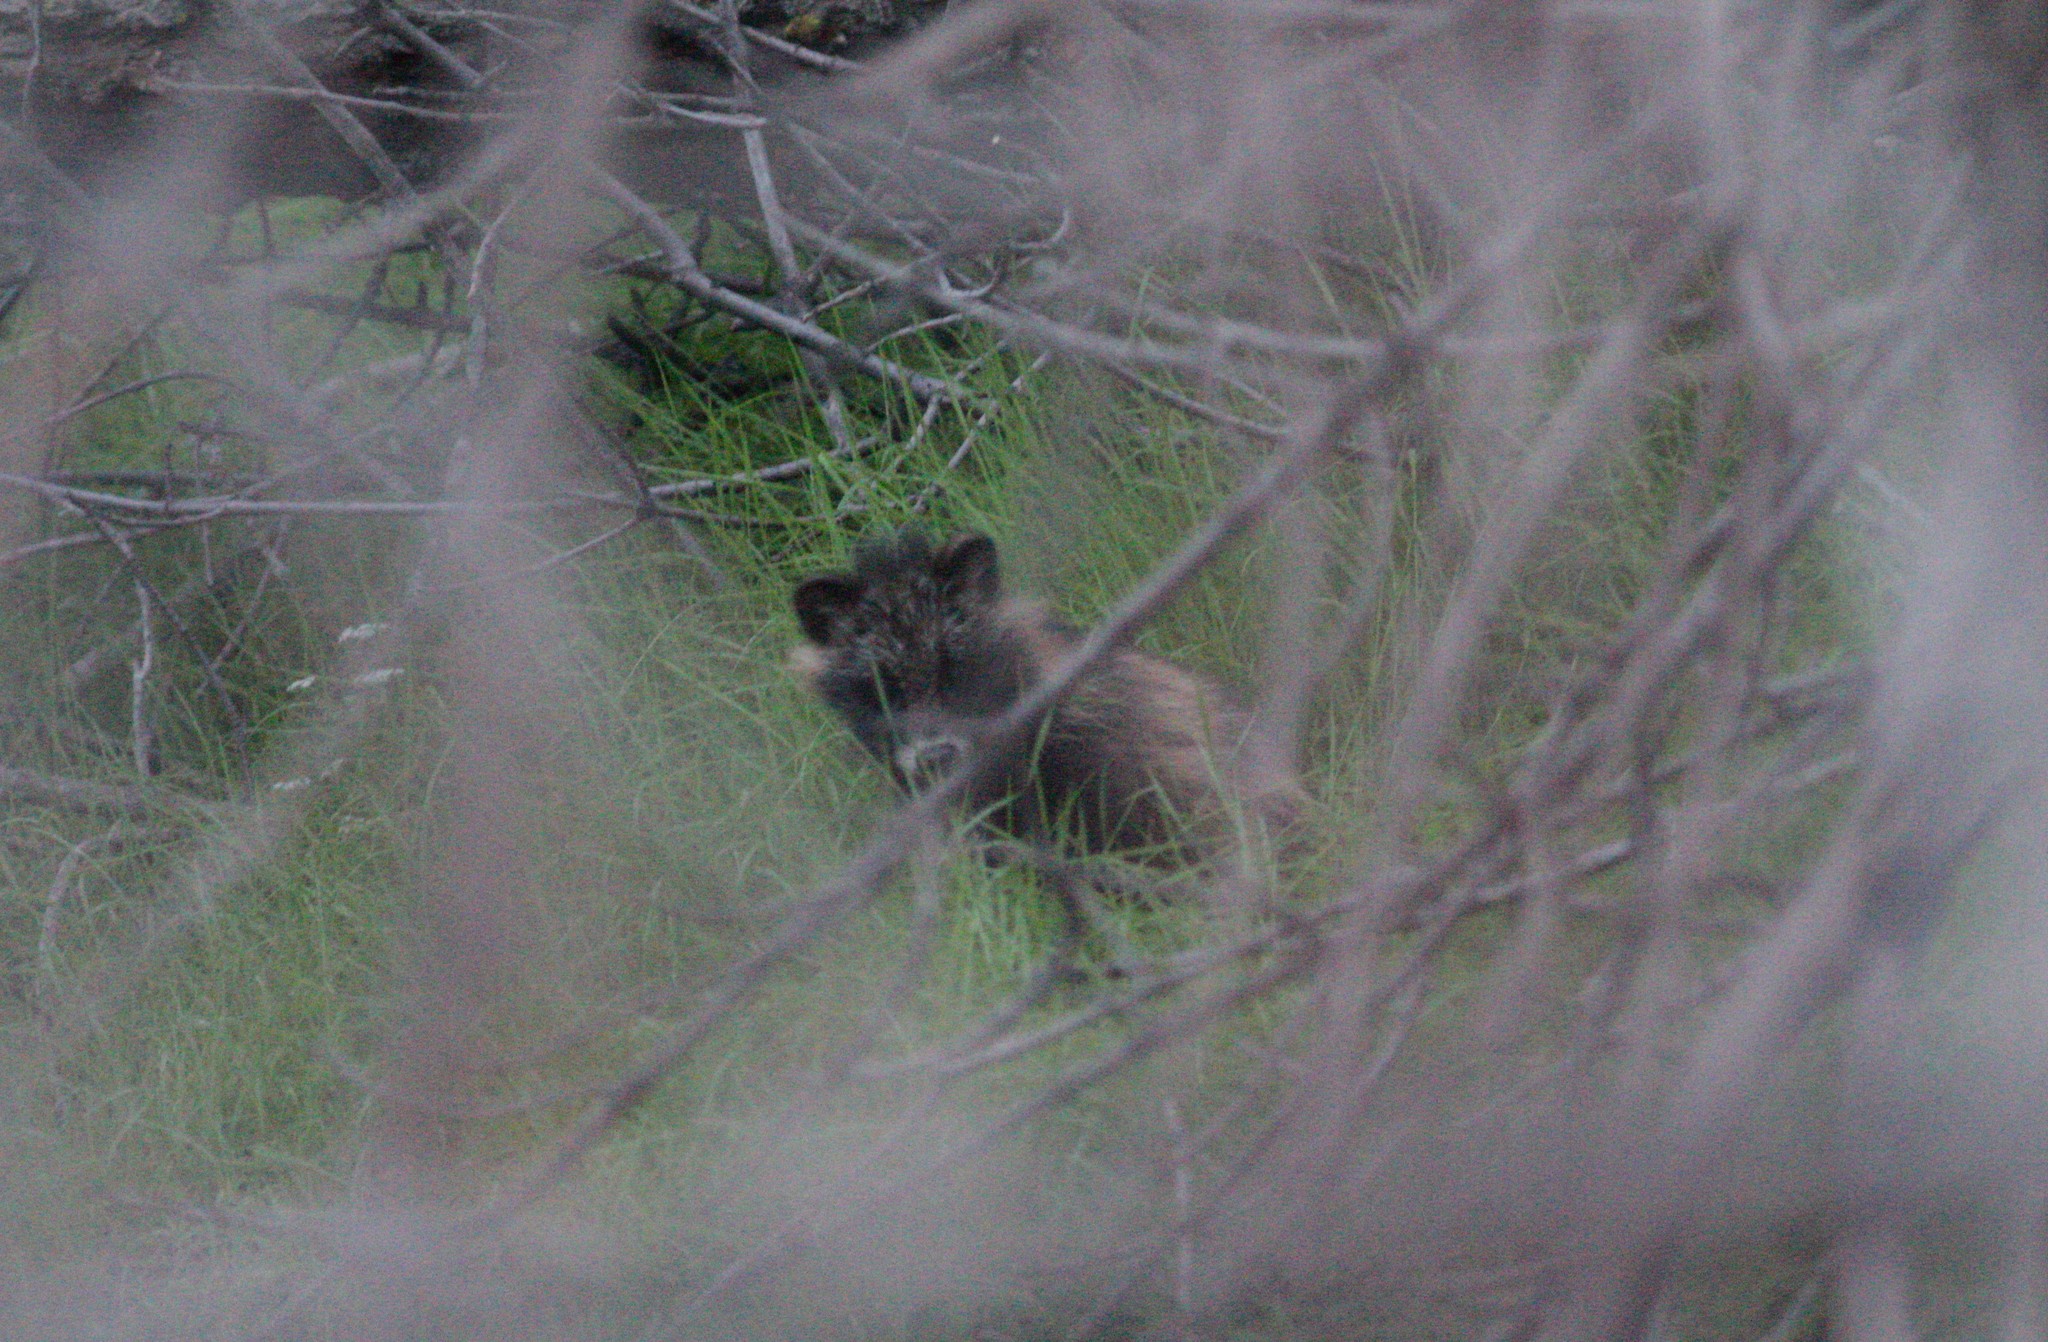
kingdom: Animalia
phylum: Chordata
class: Mammalia
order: Carnivora
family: Canidae
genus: Nyctereutes
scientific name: Nyctereutes procyonoides
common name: Raccoon dog
